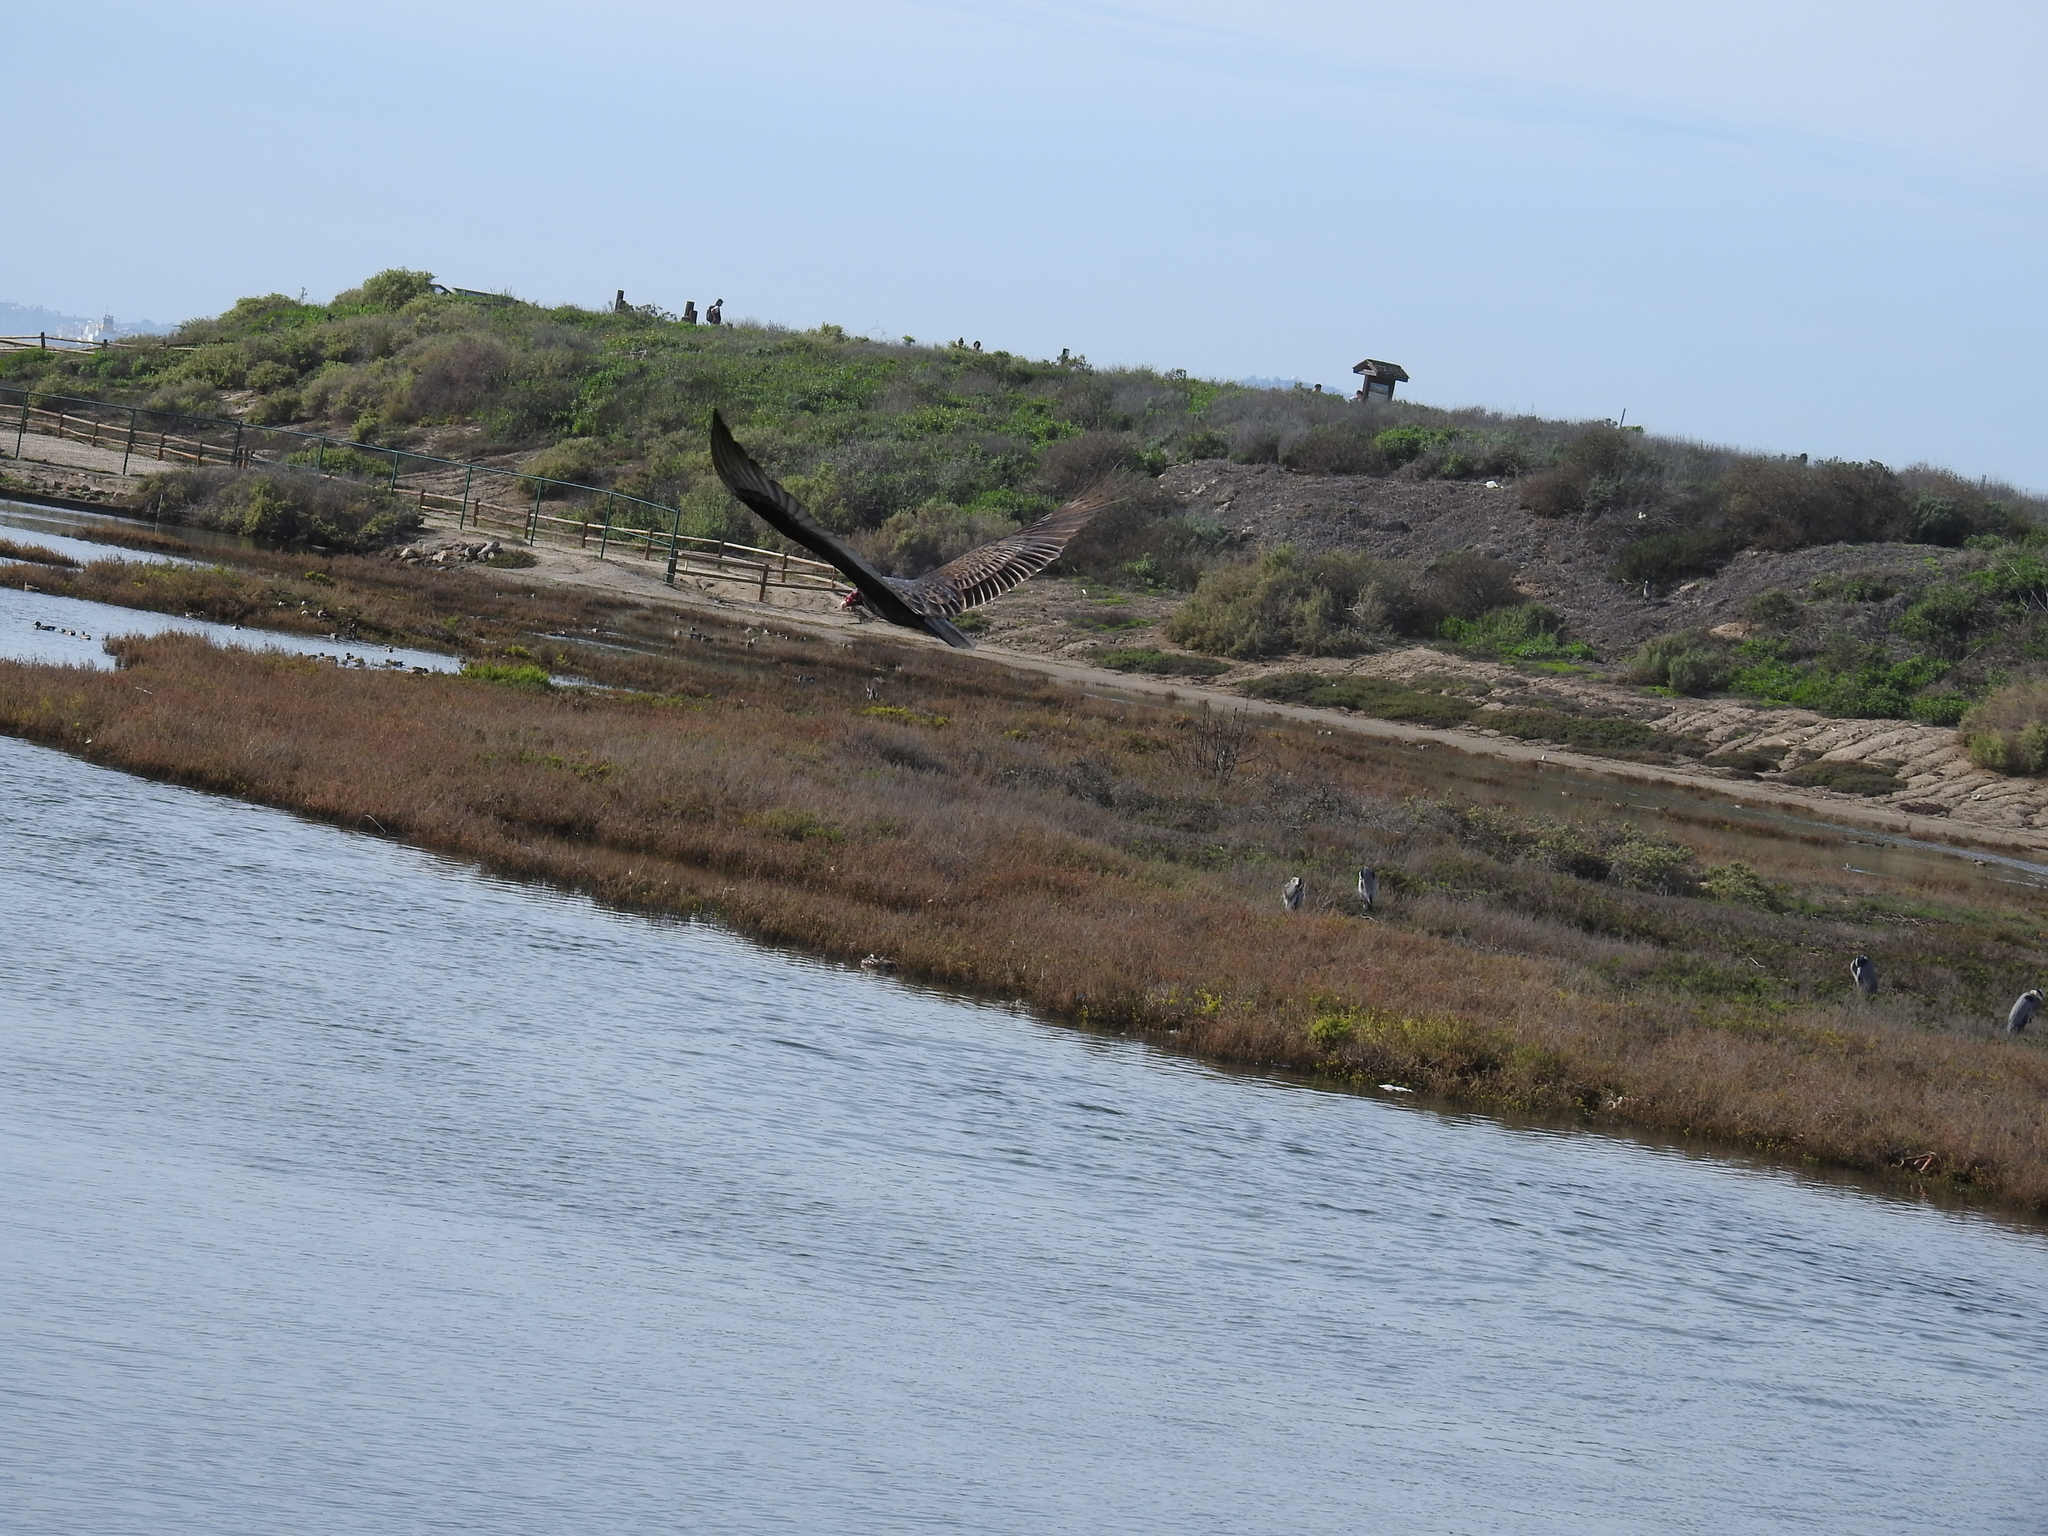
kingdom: Animalia
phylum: Chordata
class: Aves
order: Accipitriformes
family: Cathartidae
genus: Cathartes
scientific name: Cathartes aura
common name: Turkey vulture
